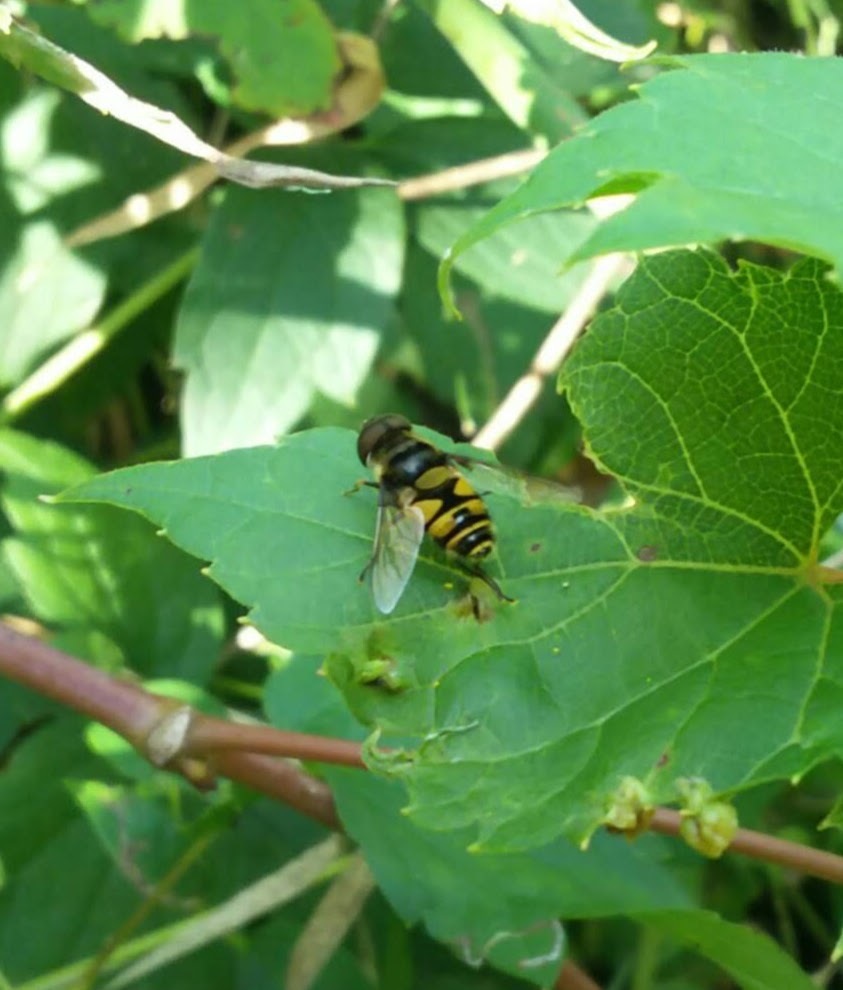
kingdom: Animalia
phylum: Arthropoda
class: Insecta
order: Diptera
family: Syrphidae
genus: Eristalis
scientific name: Eristalis transversa
